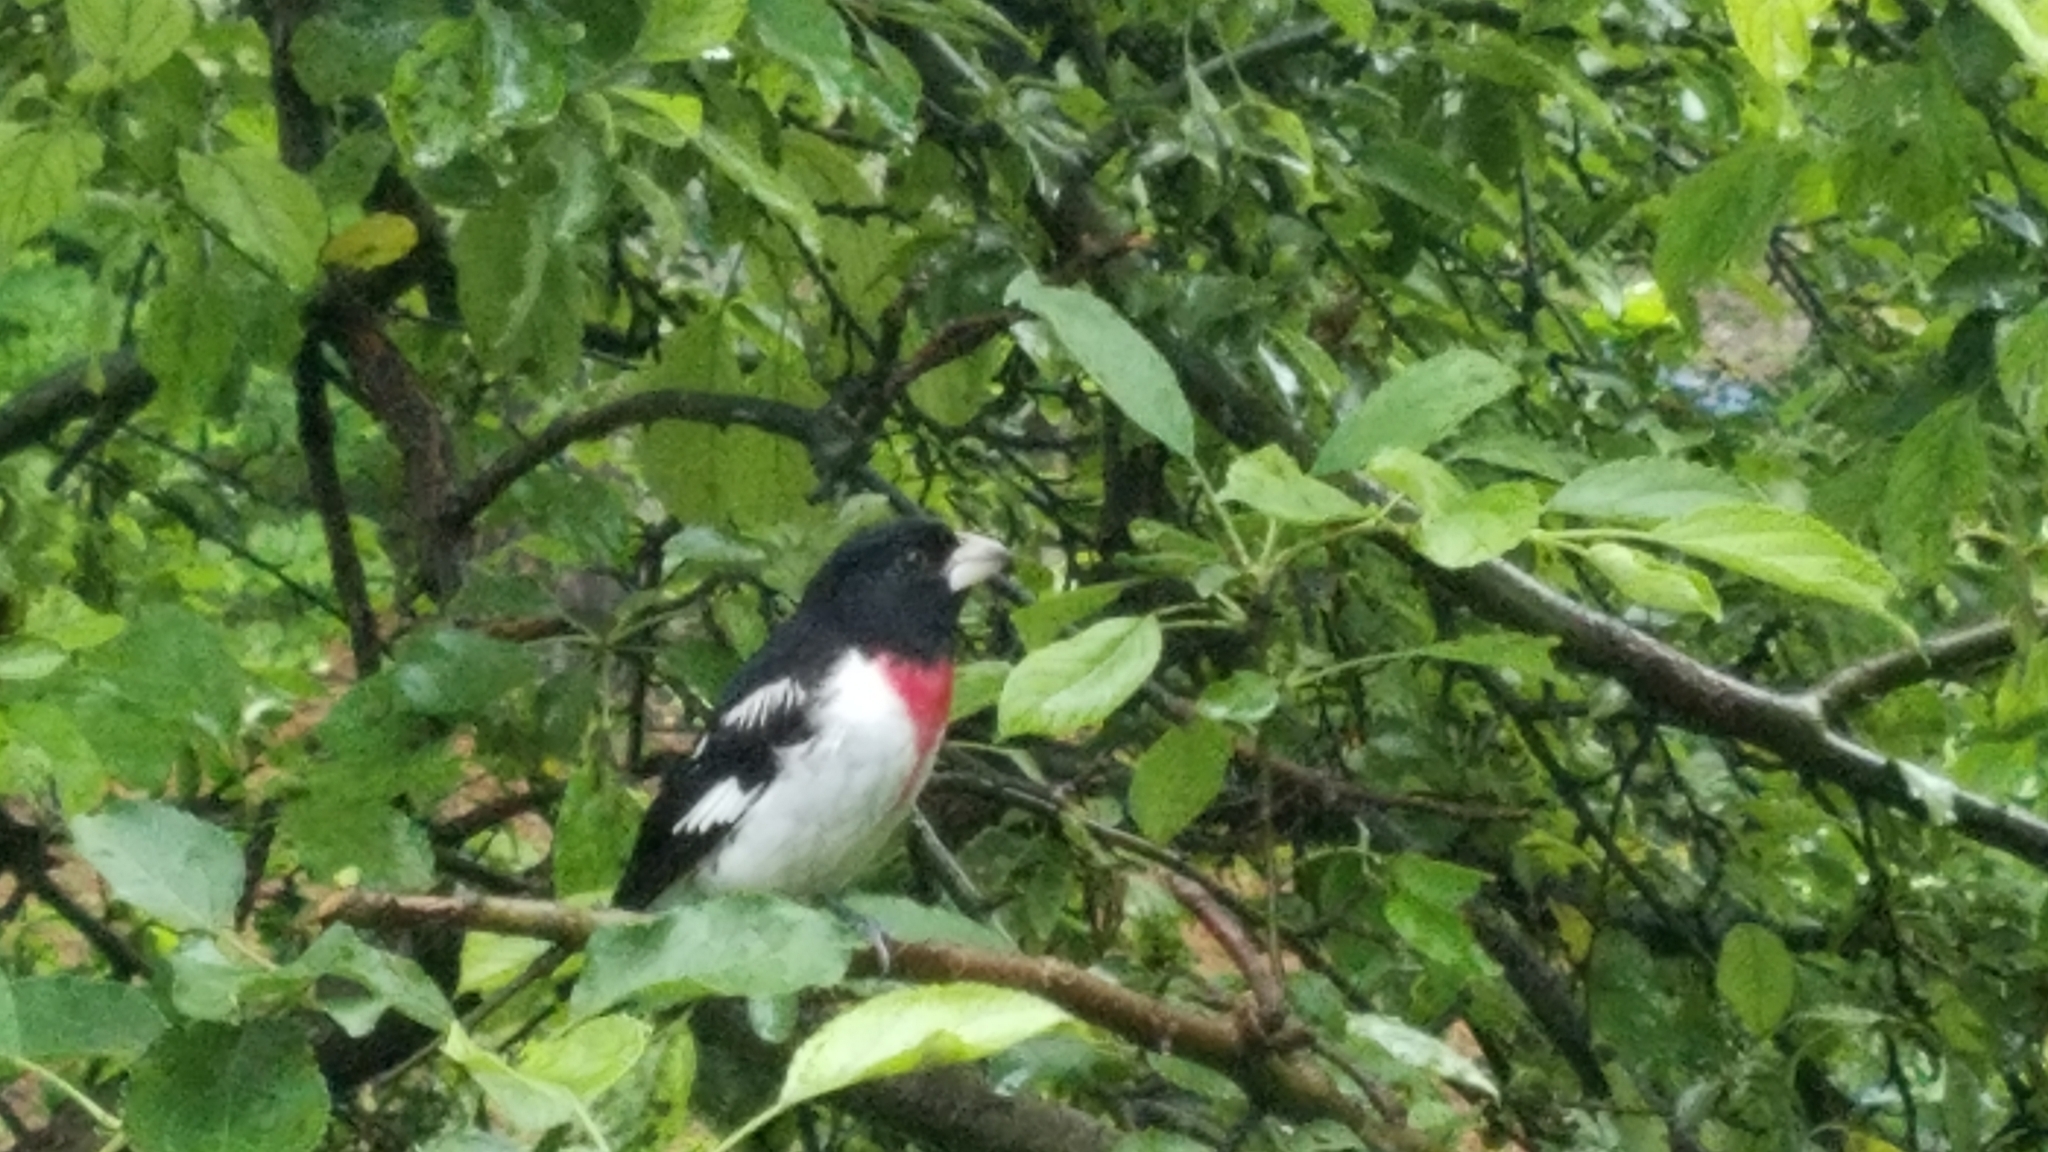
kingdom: Animalia
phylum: Chordata
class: Aves
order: Passeriformes
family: Cardinalidae
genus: Pheucticus
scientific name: Pheucticus ludovicianus
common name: Rose-breasted grosbeak
